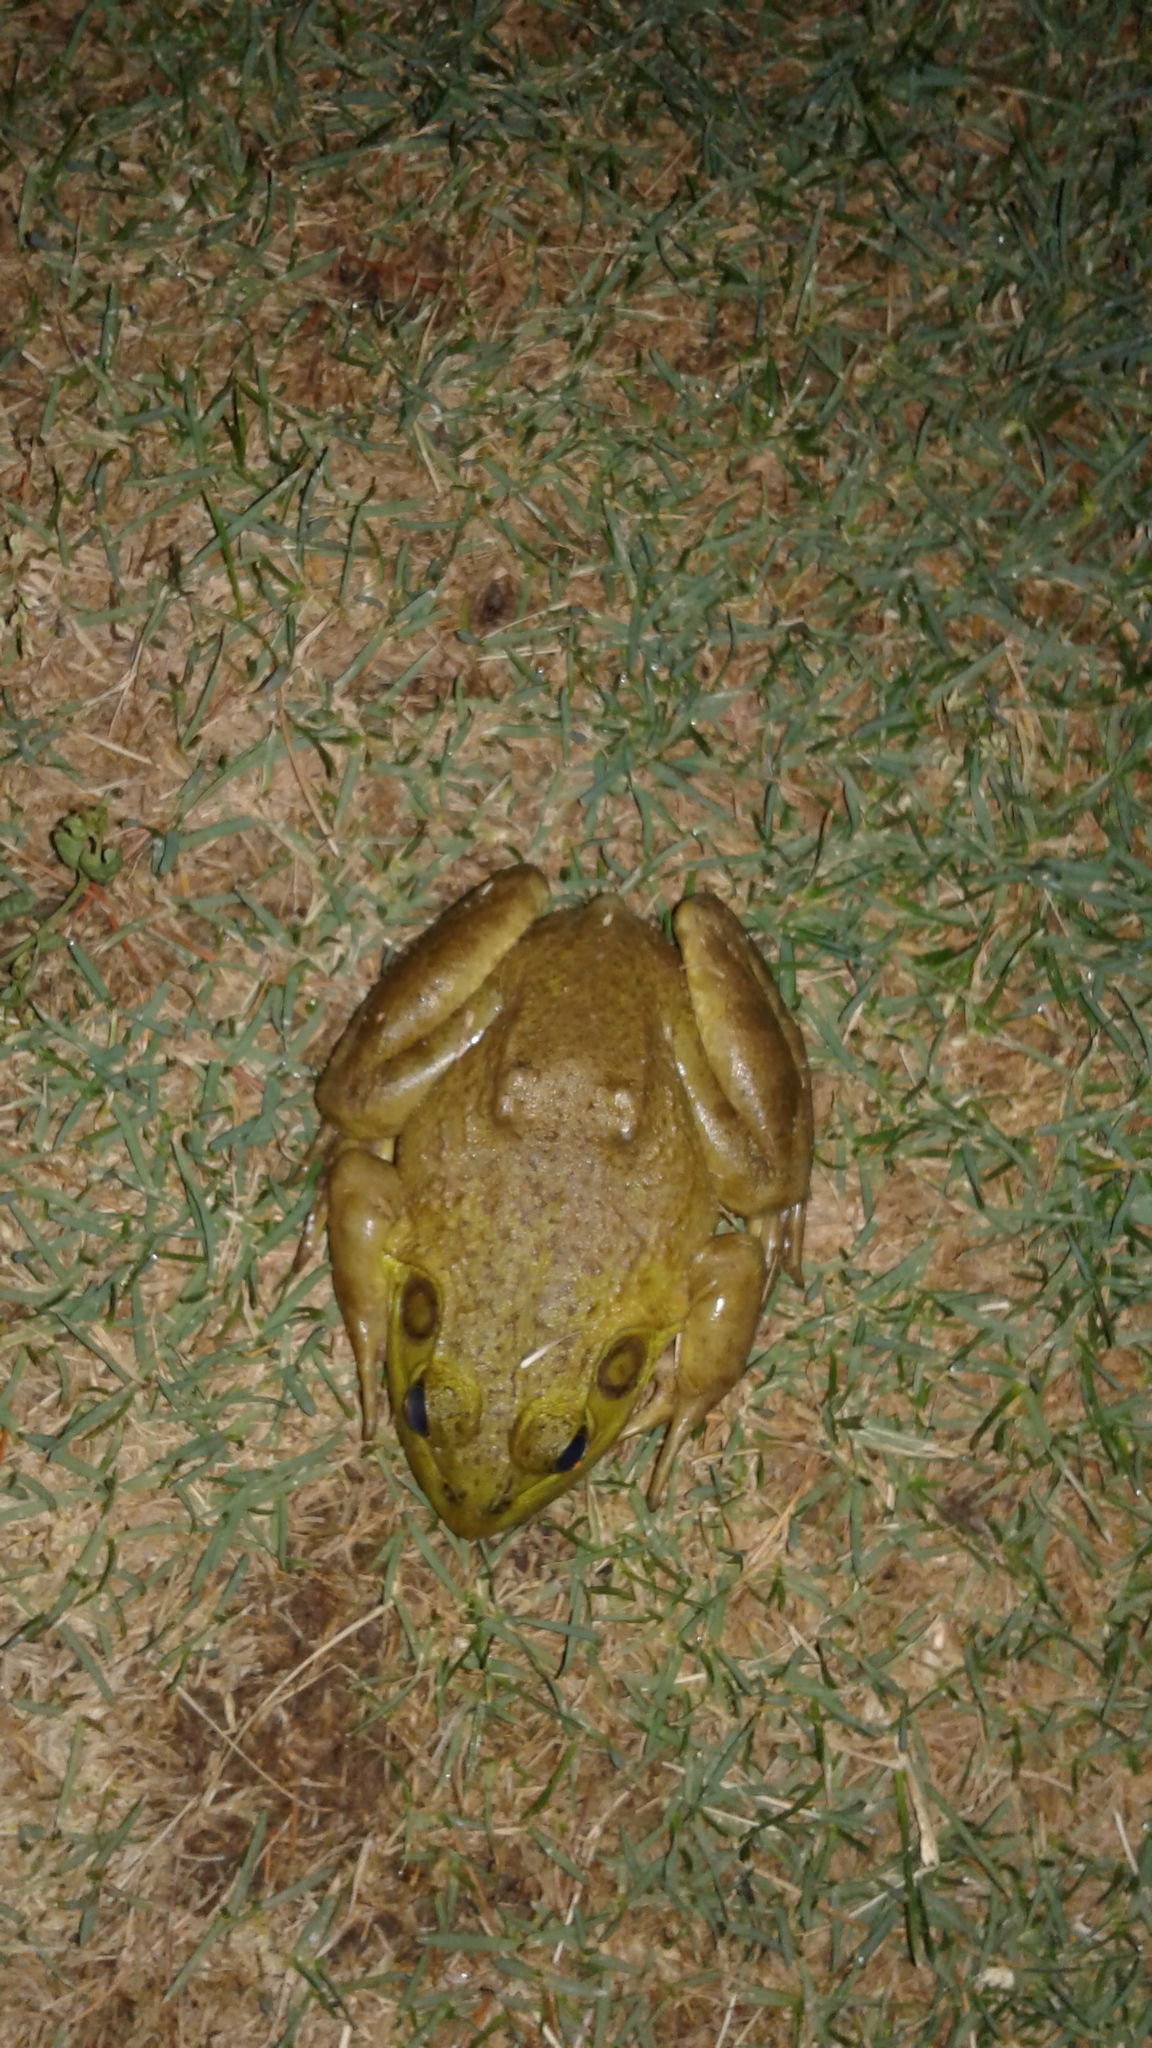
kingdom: Animalia
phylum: Chordata
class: Amphibia
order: Anura
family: Ranidae
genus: Lithobates
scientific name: Lithobates catesbeianus
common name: American bullfrog
